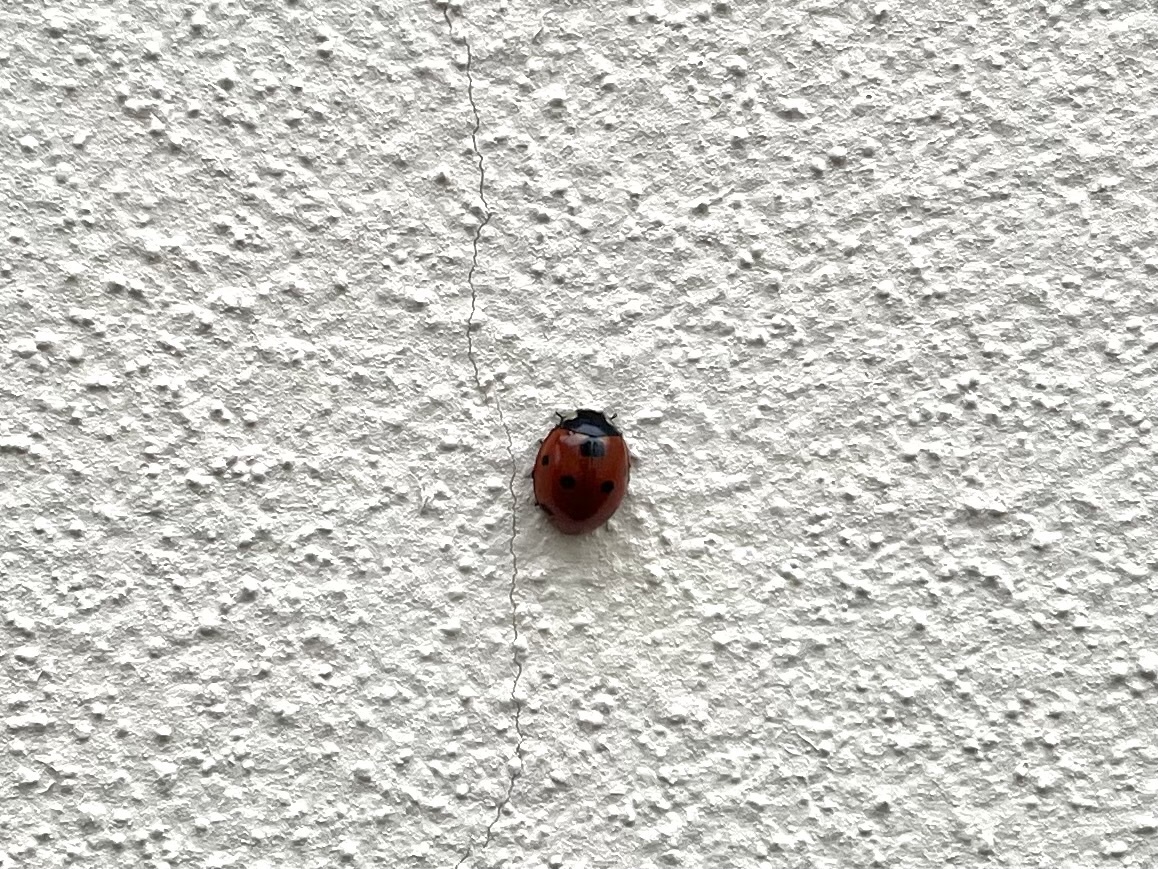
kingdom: Animalia
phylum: Arthropoda
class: Insecta
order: Coleoptera
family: Coccinellidae
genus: Coccinella
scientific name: Coccinella septempunctata
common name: Sevenspotted lady beetle
